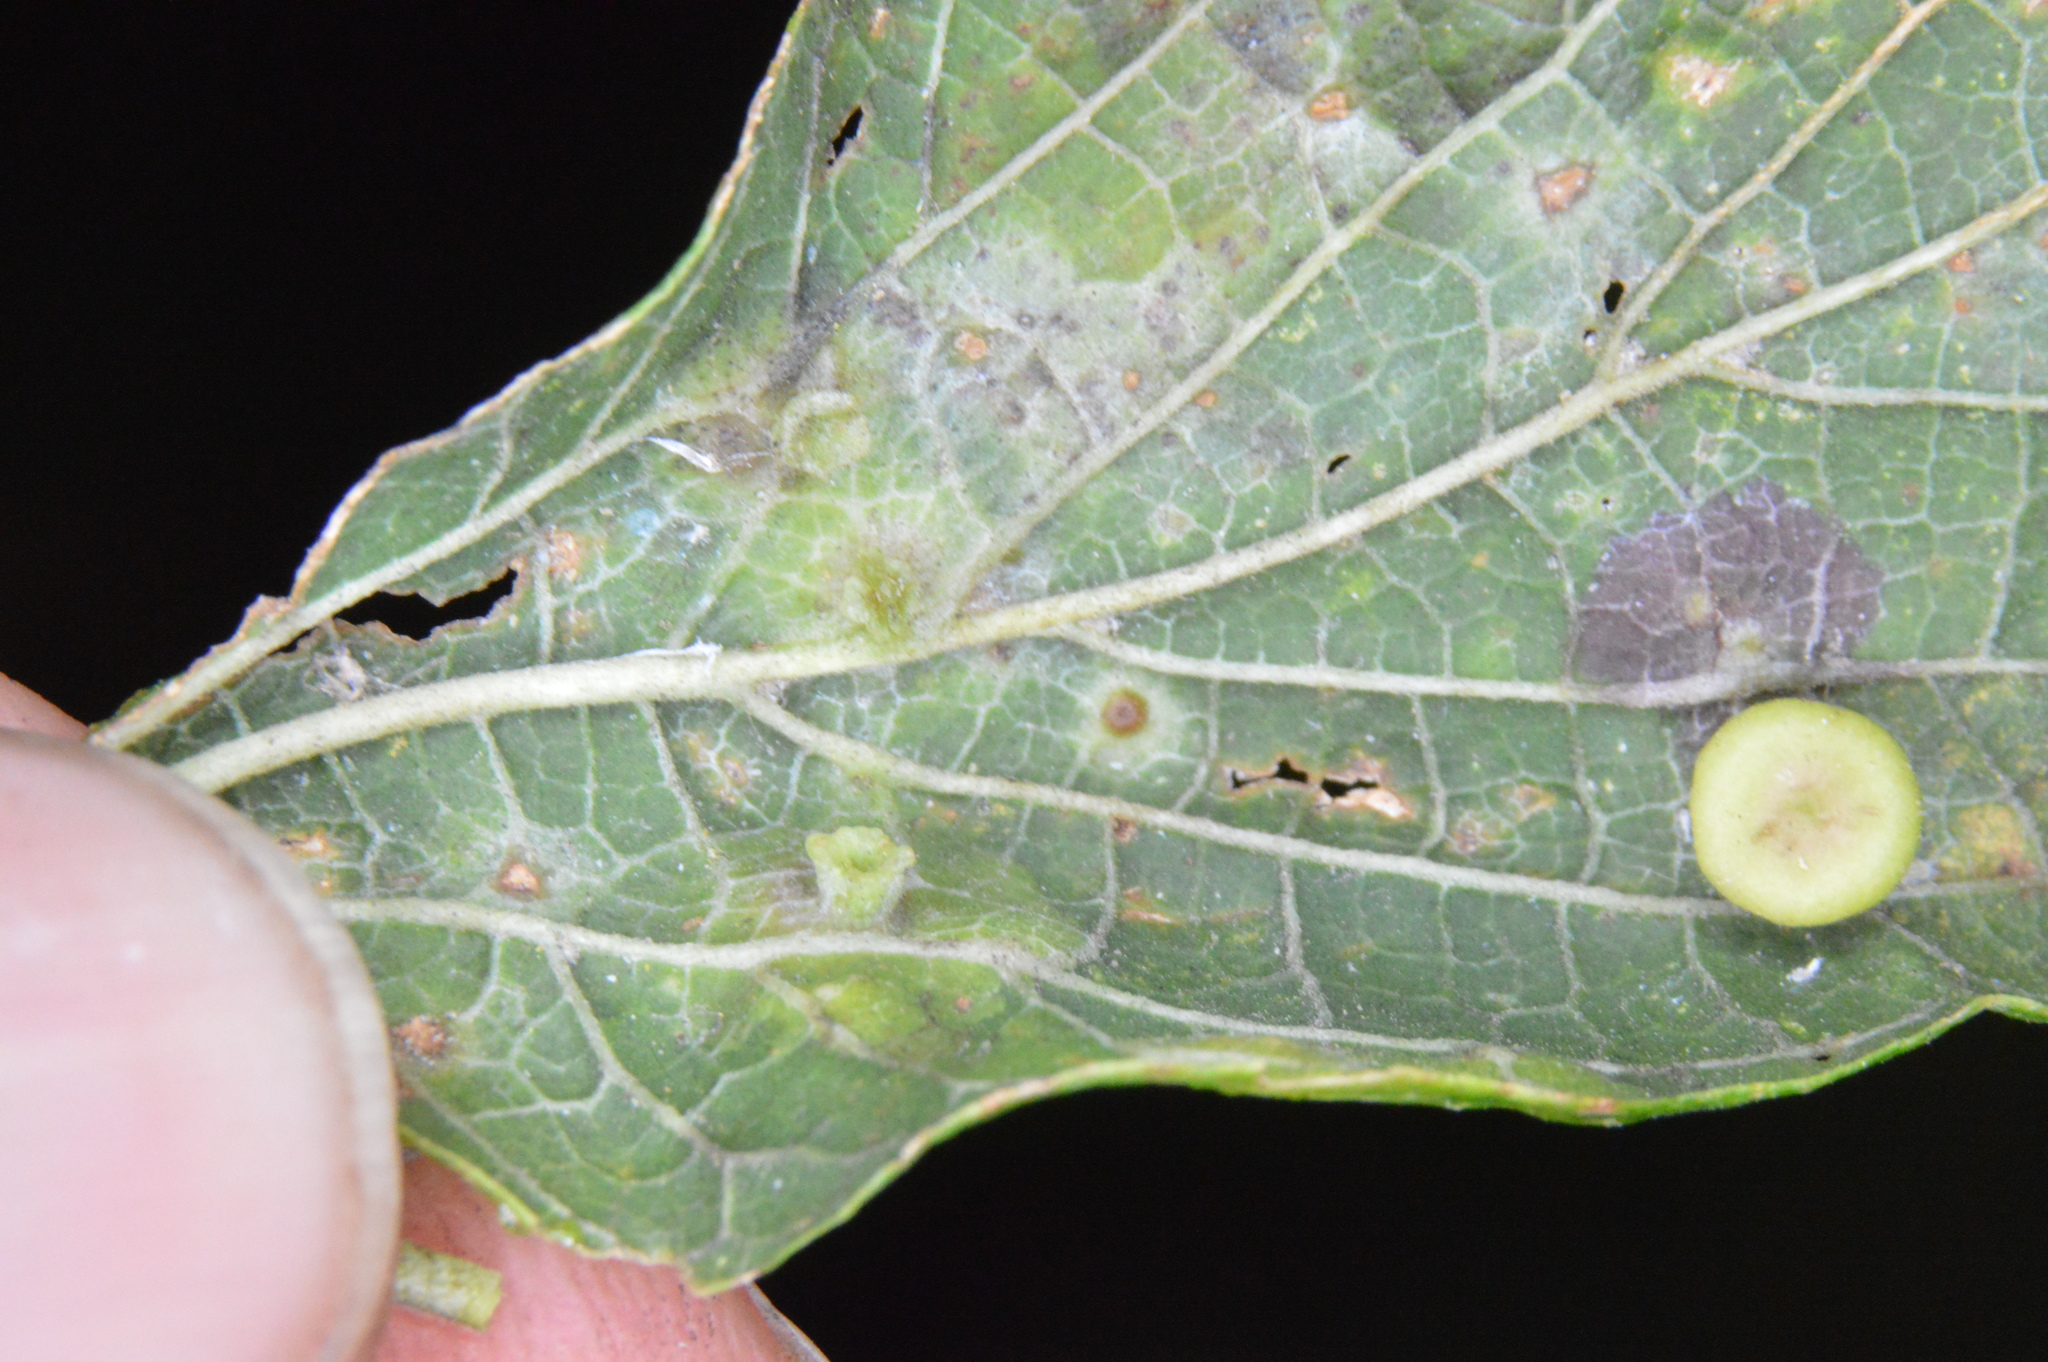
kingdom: Animalia
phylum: Arthropoda
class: Insecta
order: Hemiptera
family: Aphalaridae
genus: Pachypsylla
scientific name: Pachypsylla celtidisasterisca
